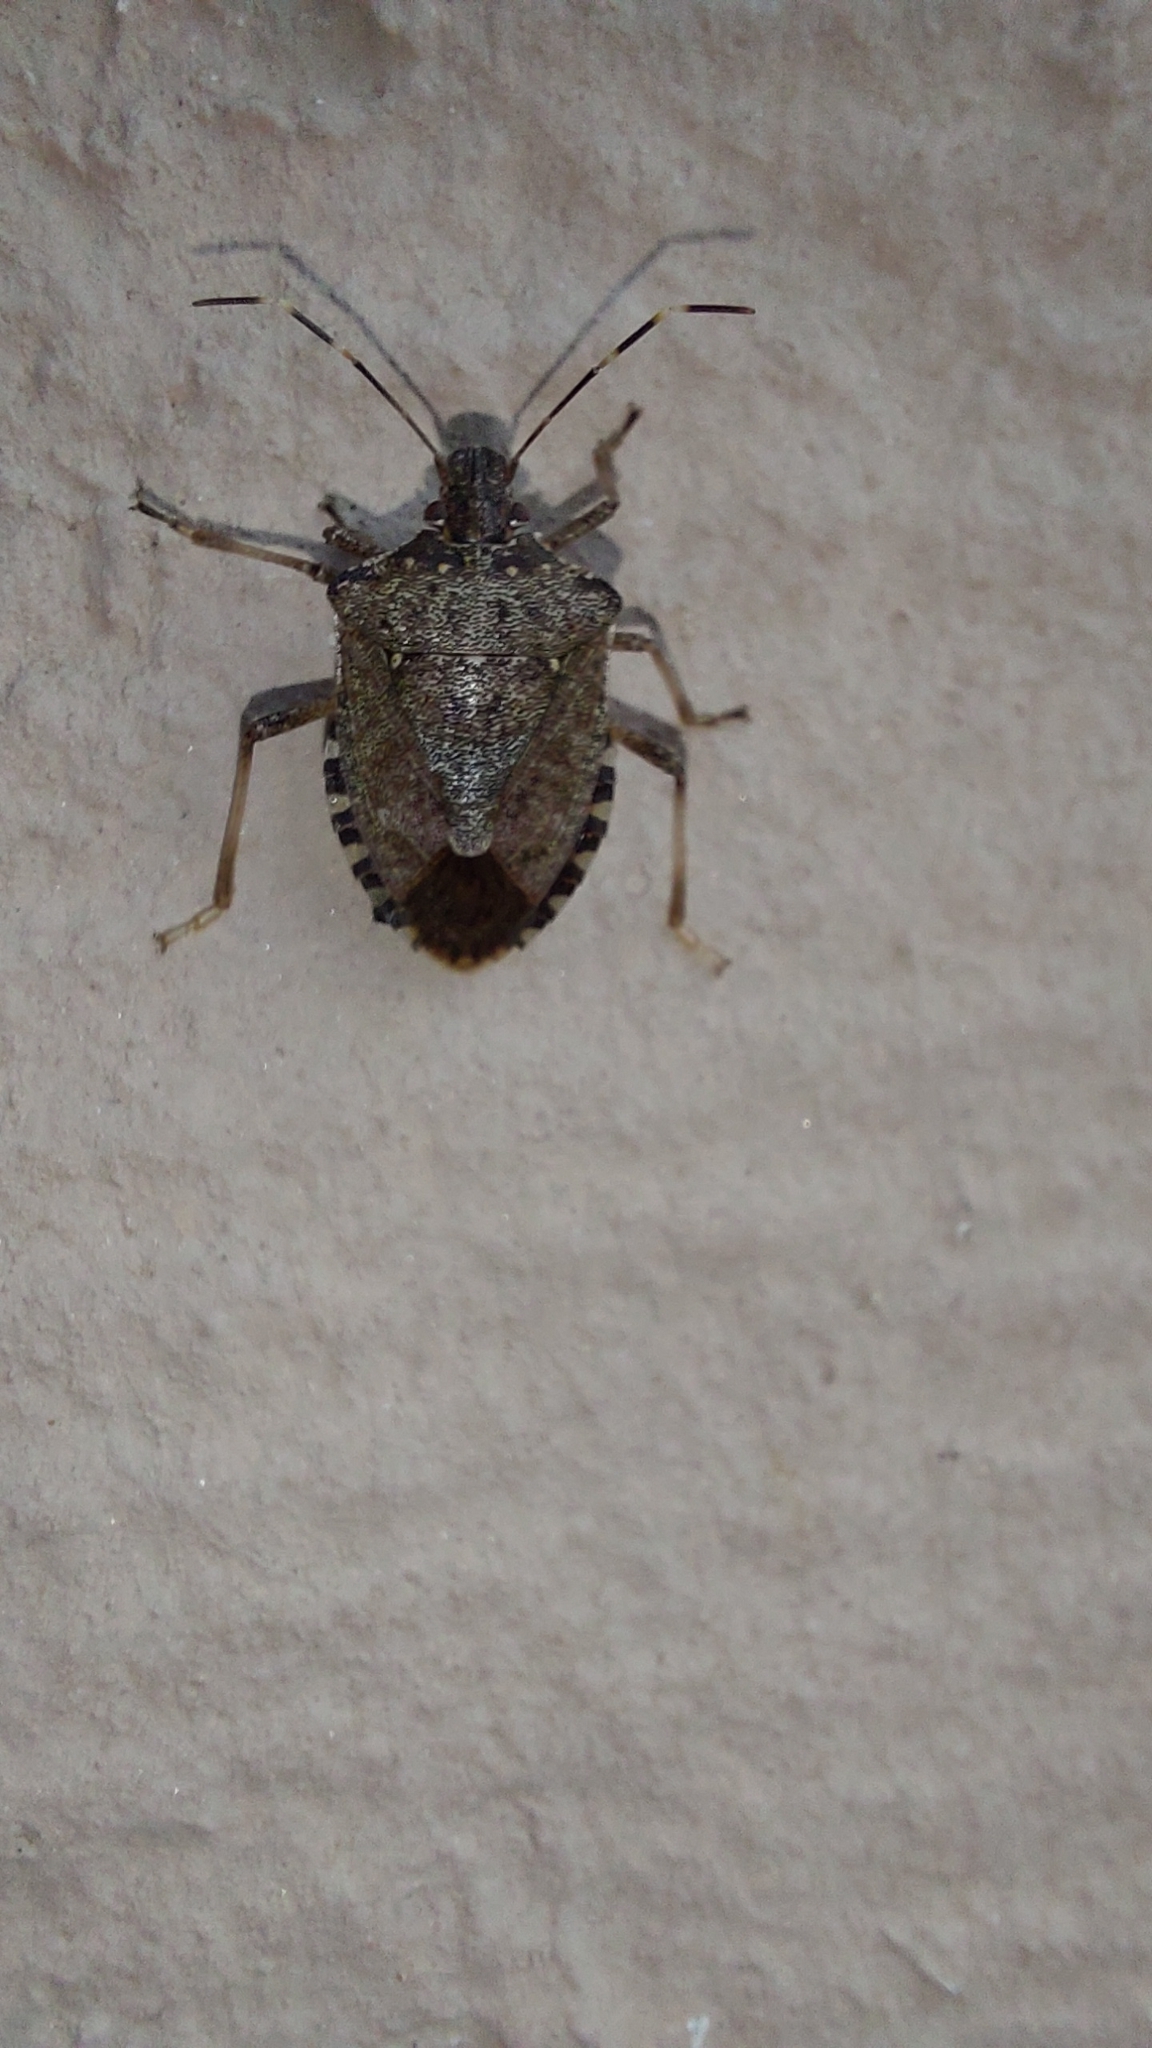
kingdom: Animalia
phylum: Arthropoda
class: Insecta
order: Hemiptera
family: Pentatomidae
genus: Halyomorpha
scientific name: Halyomorpha halys
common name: Brown marmorated stink bug
